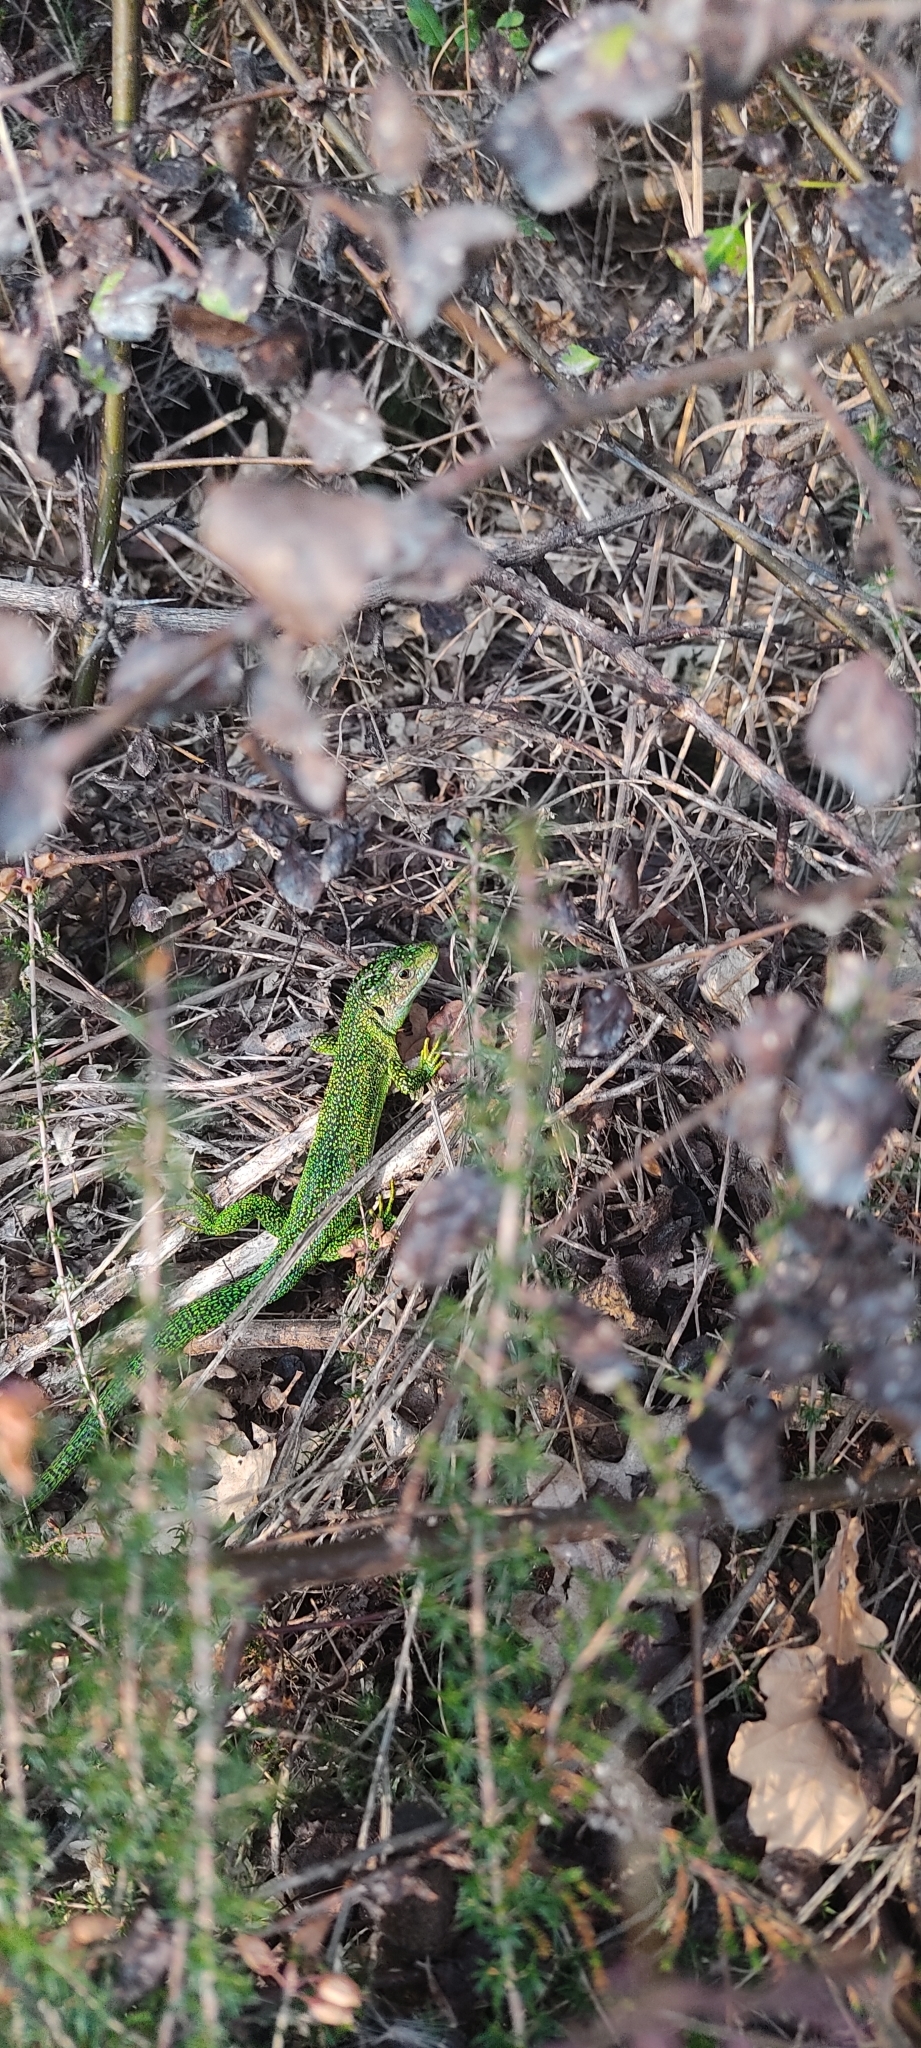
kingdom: Animalia
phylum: Chordata
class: Squamata
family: Lacertidae
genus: Lacerta
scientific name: Lacerta bilineata
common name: Western green lizard
